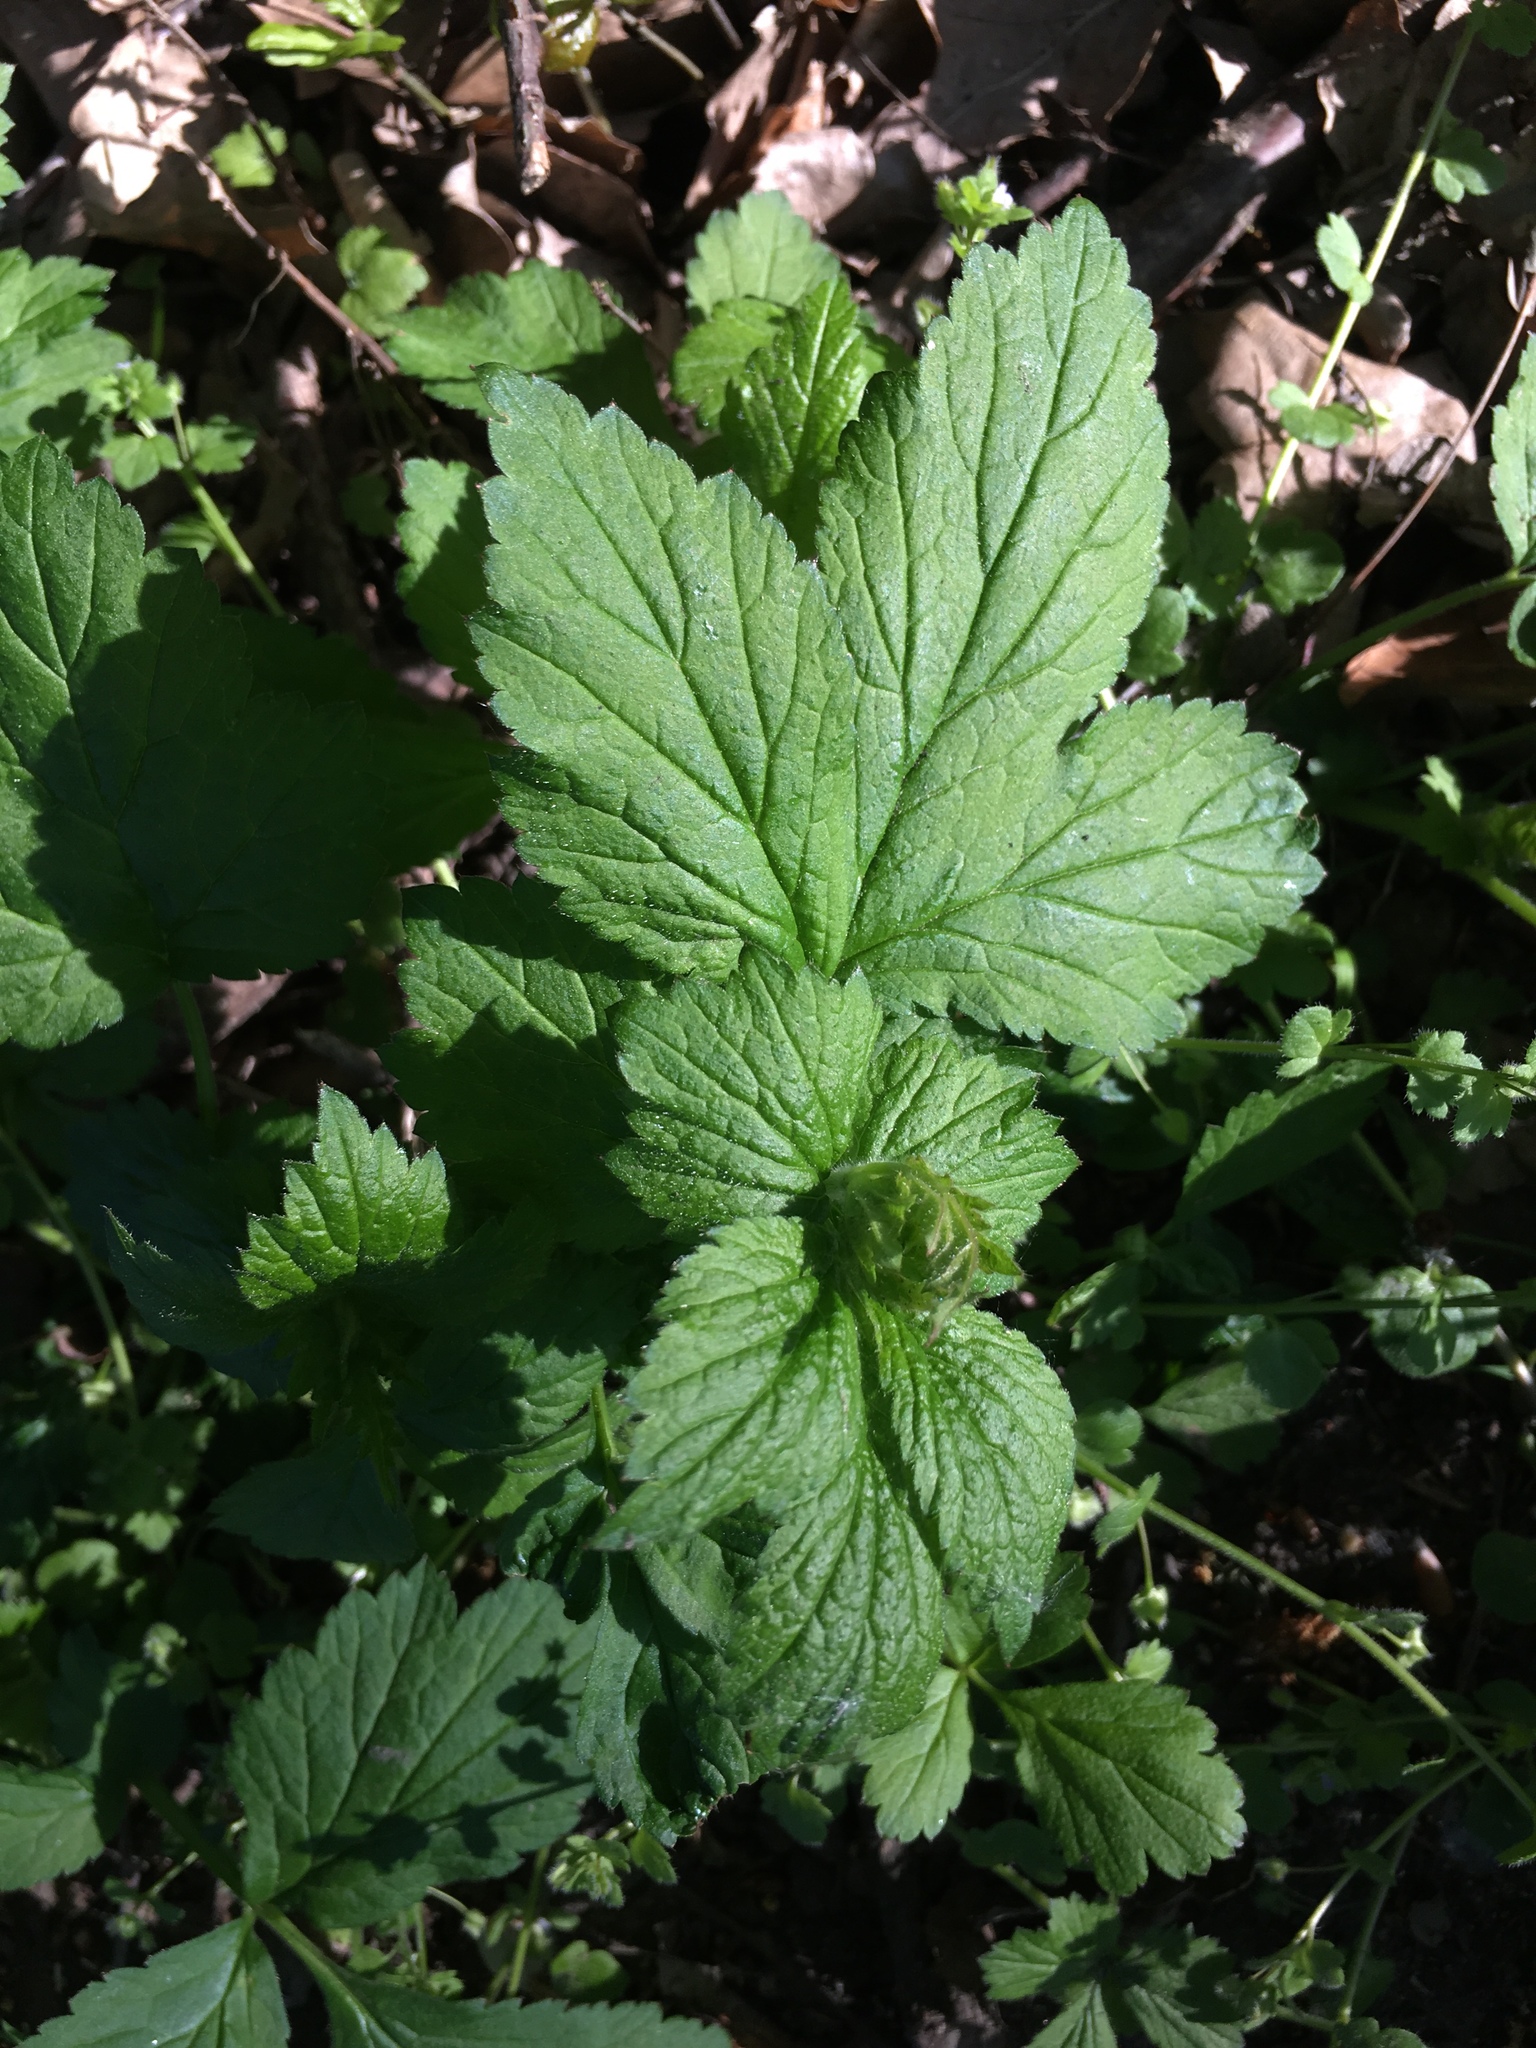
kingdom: Plantae
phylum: Tracheophyta
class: Magnoliopsida
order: Rosales
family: Rosaceae
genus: Geum
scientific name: Geum urbanum
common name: Wood avens
